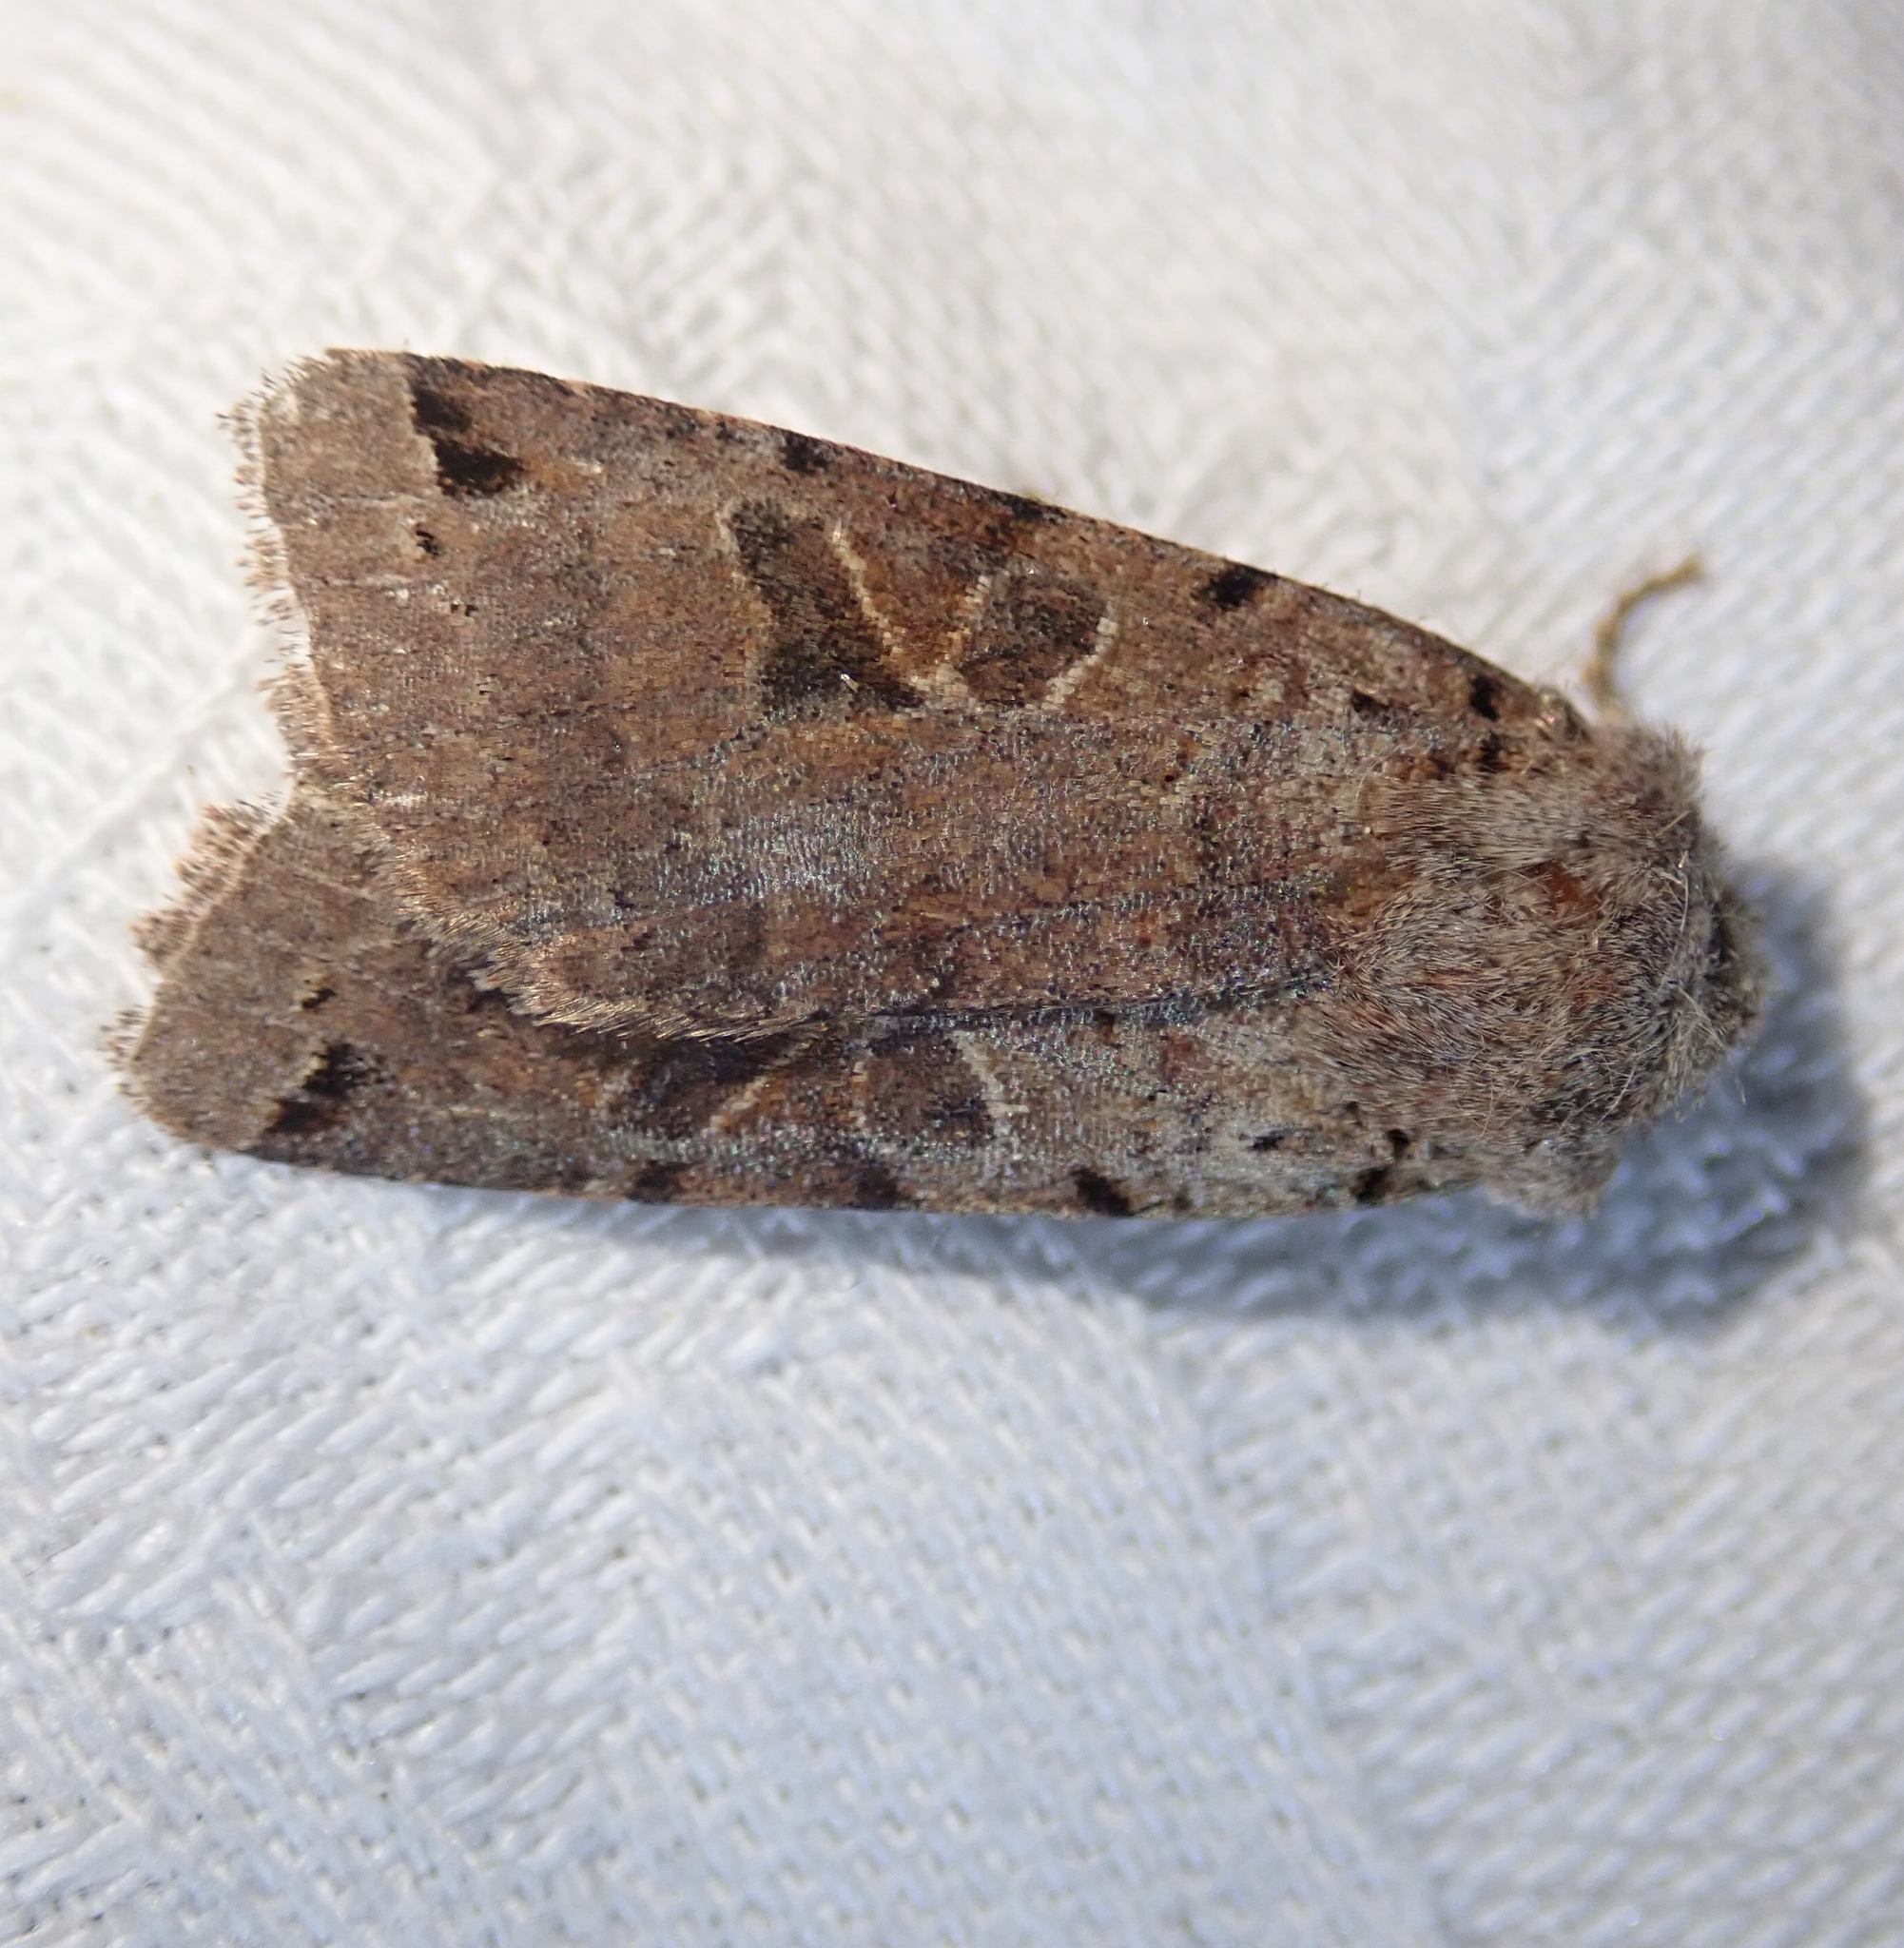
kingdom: Animalia
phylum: Arthropoda
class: Insecta
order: Lepidoptera
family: Noctuidae
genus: Agrochola
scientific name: Agrochola litura
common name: Brown-spot pinion
